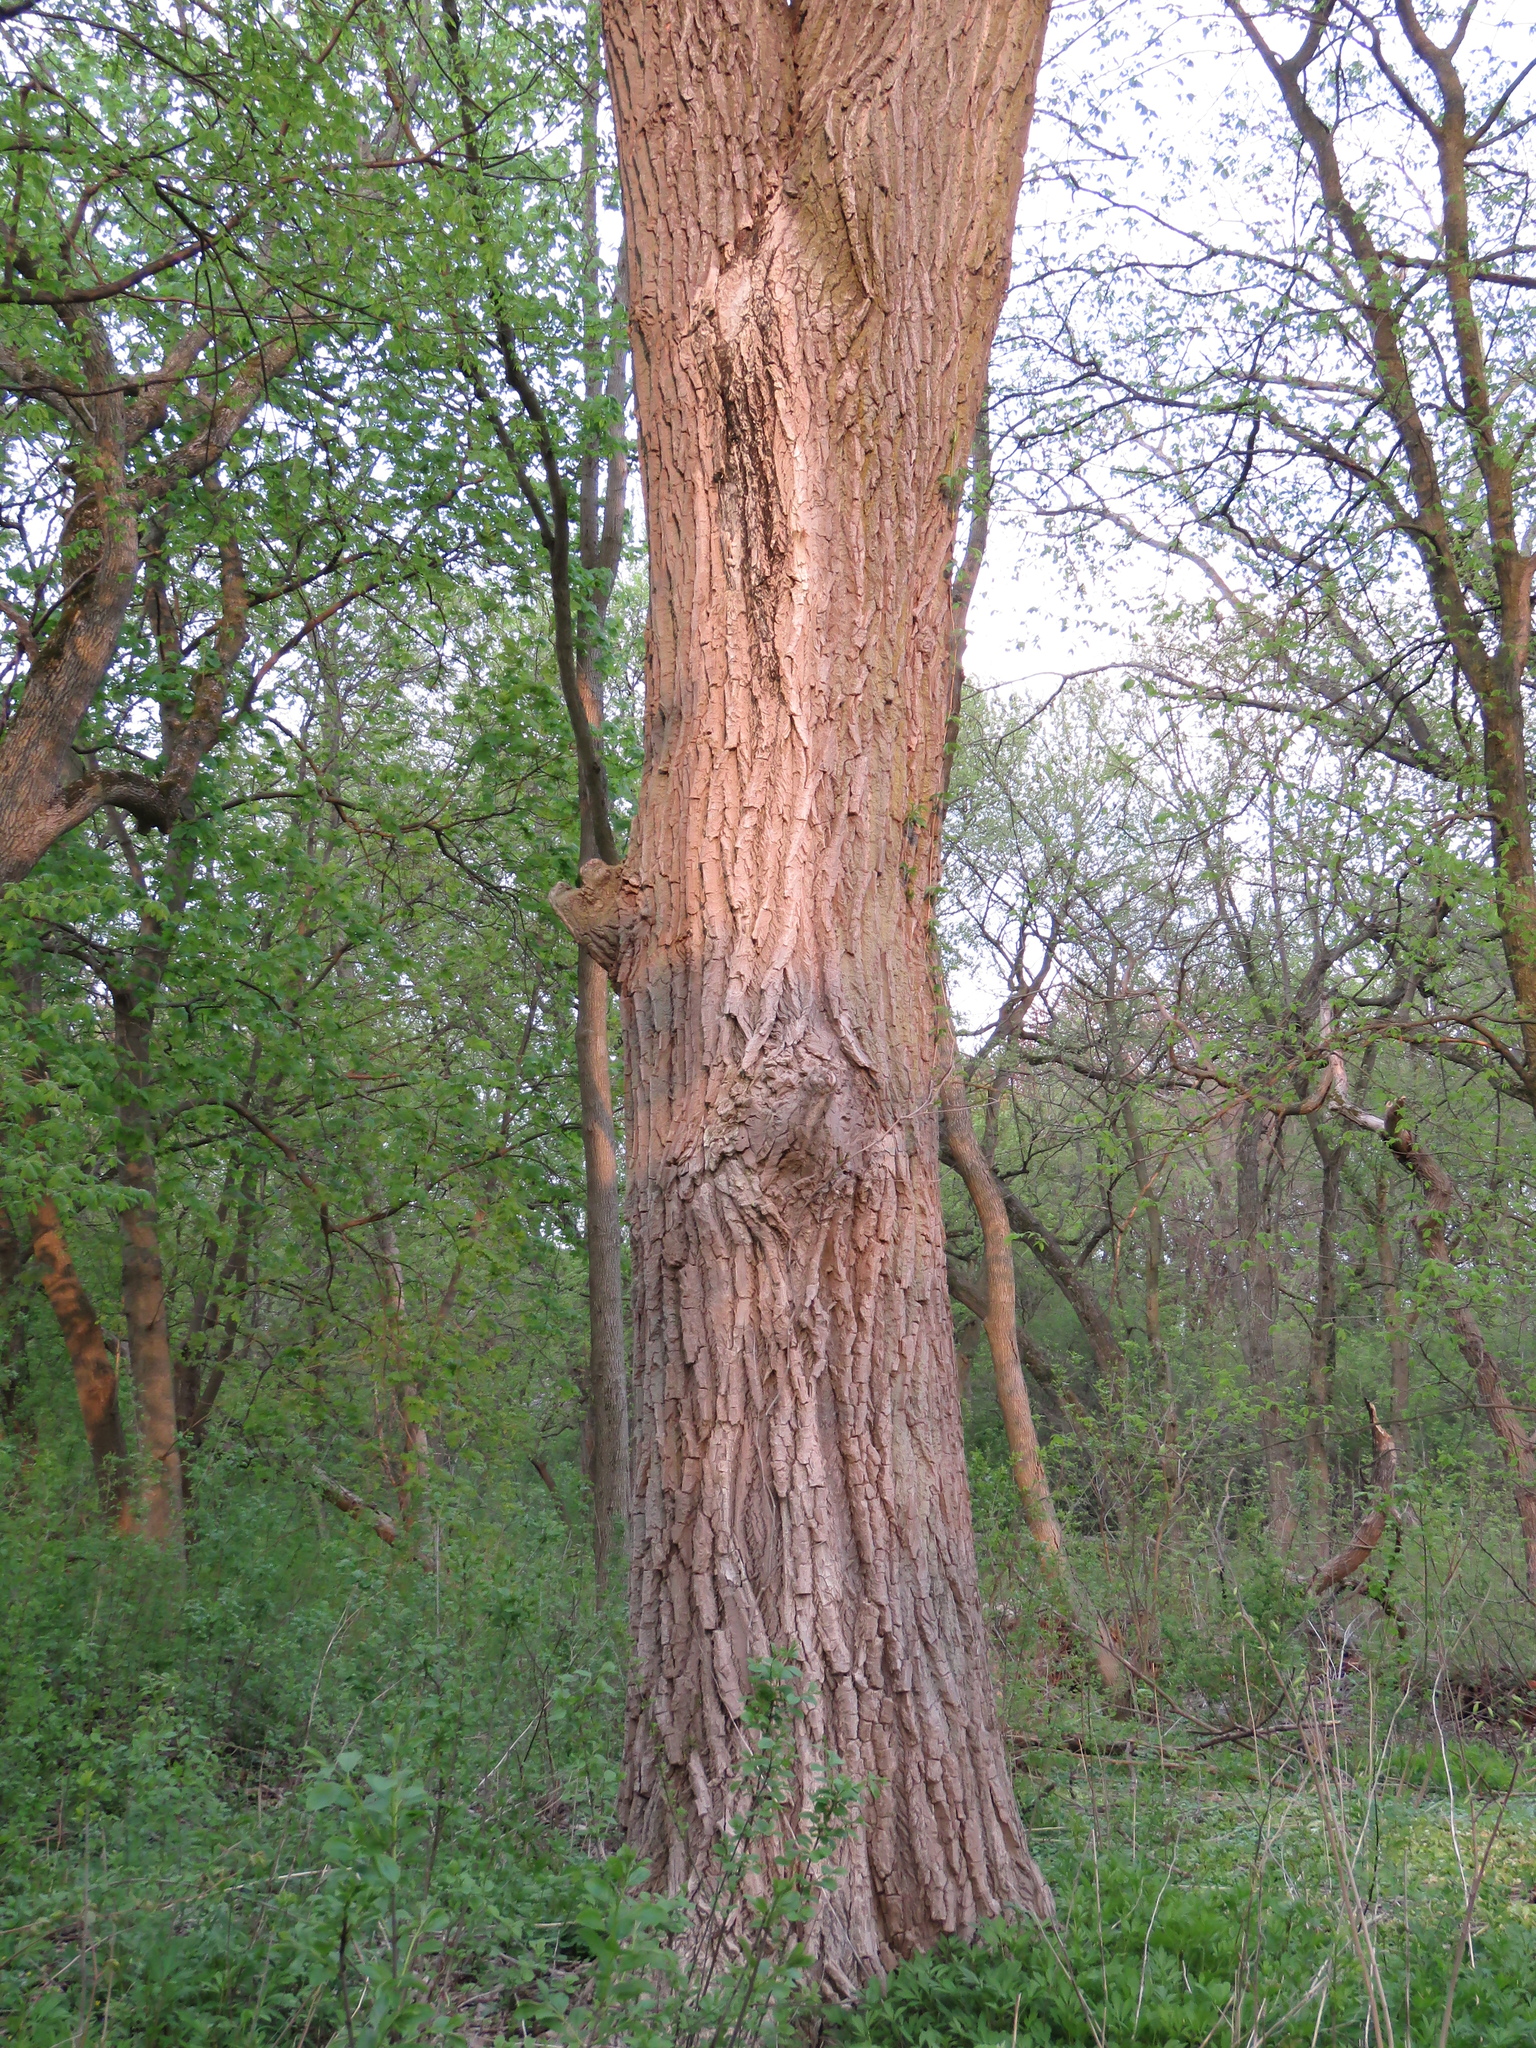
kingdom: Plantae
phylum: Tracheophyta
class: Magnoliopsida
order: Malpighiales
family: Salicaceae
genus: Populus
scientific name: Populus deltoides
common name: Eastern cottonwood
